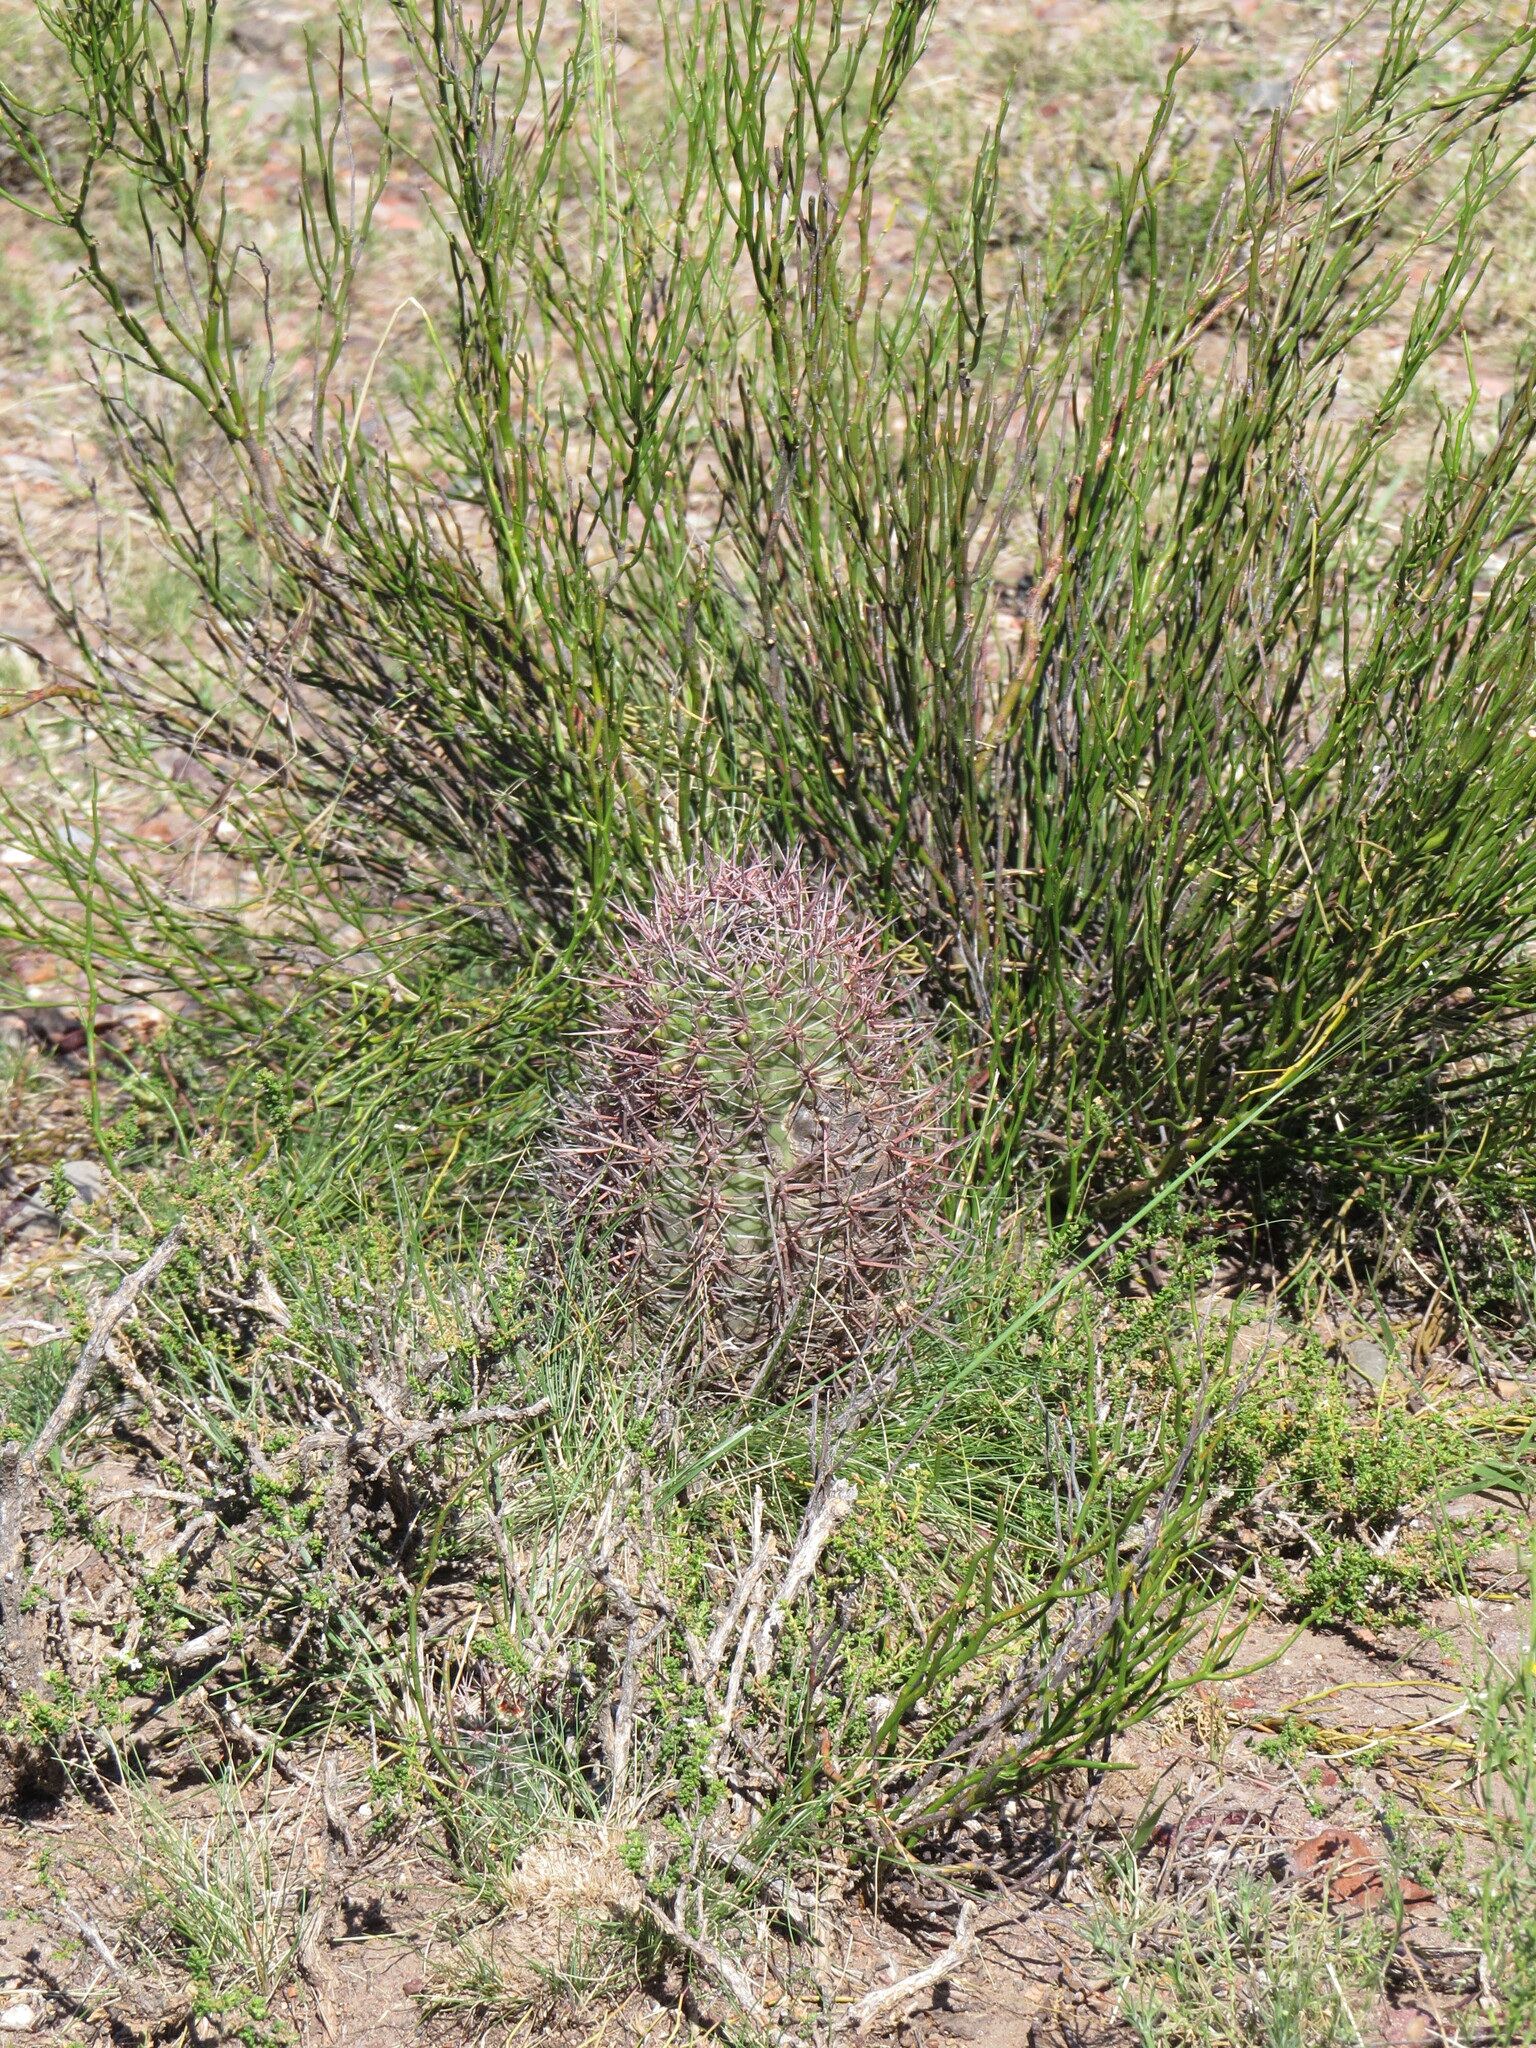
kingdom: Plantae
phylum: Tracheophyta
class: Magnoliopsida
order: Caryophyllales
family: Cactaceae
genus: Denmoza
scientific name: Denmoza rhodacantha
